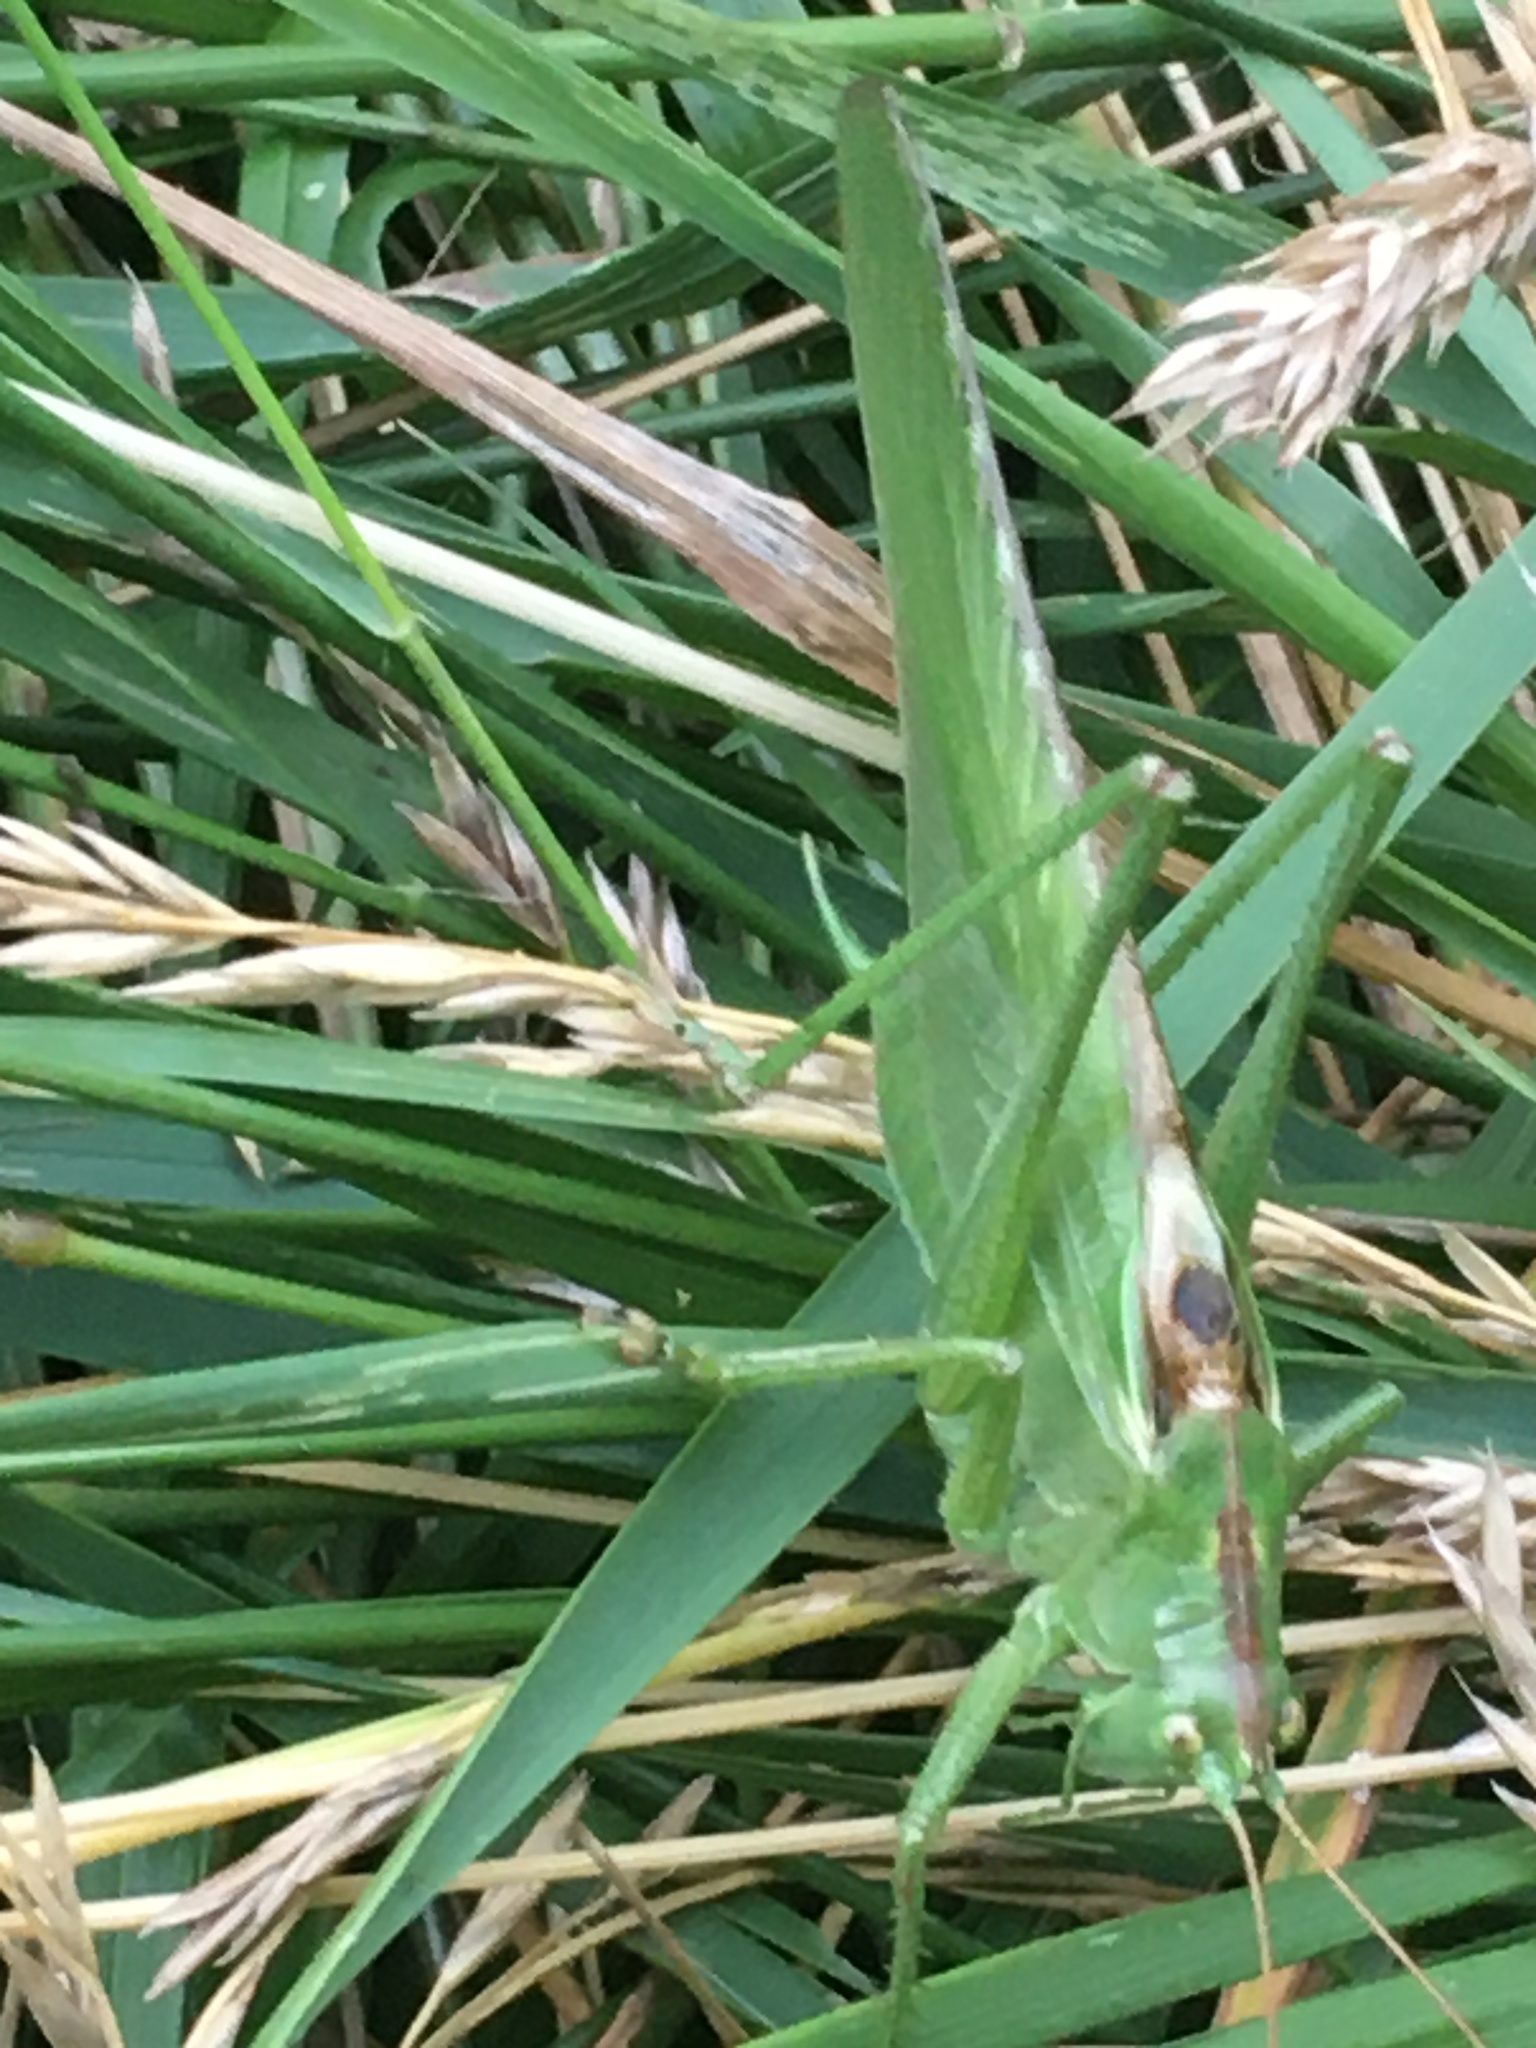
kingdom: Animalia
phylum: Arthropoda
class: Insecta
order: Orthoptera
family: Tettigoniidae
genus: Tettigonia
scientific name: Tettigonia viridissima
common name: Great green bush-cricket
